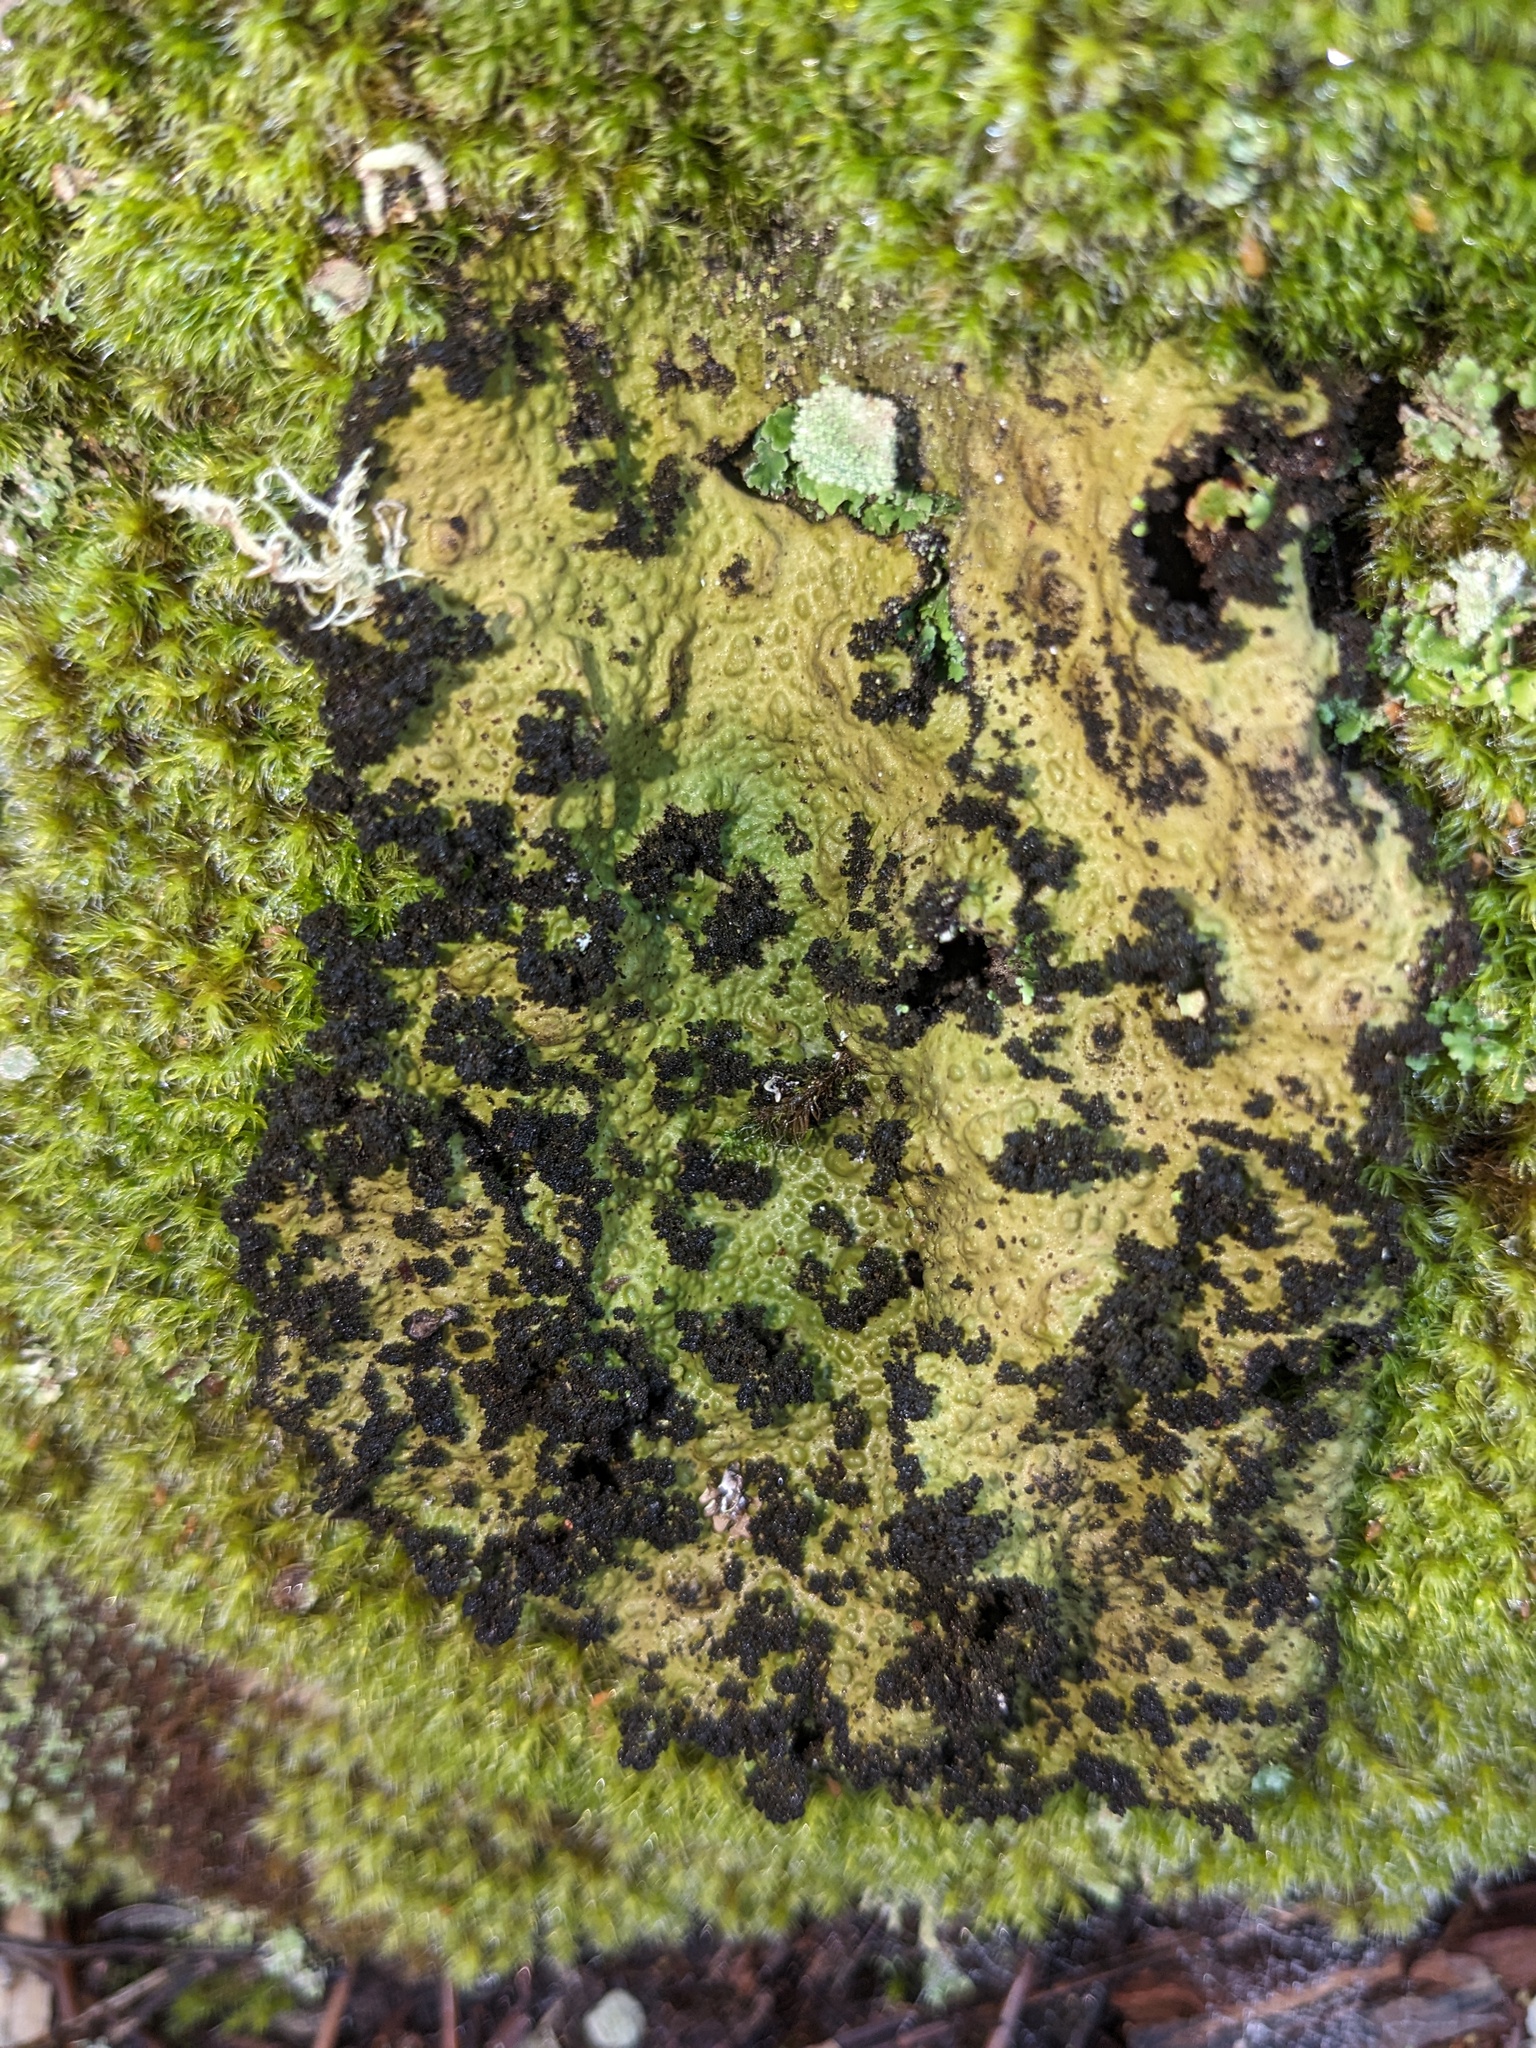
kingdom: Fungi
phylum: Ascomycota
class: Lecanoromycetes
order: Umbilicariales
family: Umbilicariaceae
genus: Lasallia
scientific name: Lasallia pustulata
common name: Blistered toadskin lichen
